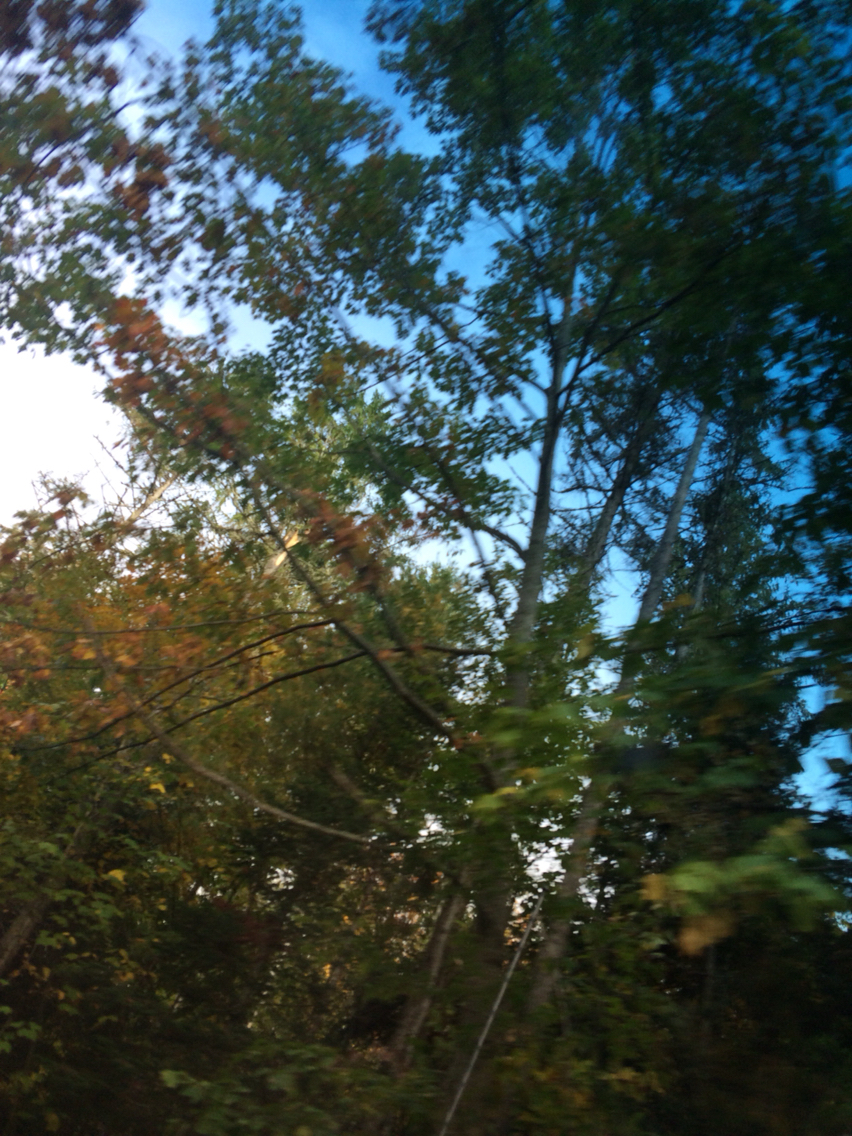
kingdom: Plantae
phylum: Tracheophyta
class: Magnoliopsida
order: Fagales
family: Fagaceae
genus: Quercus
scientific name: Quercus rubra
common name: Red oak
